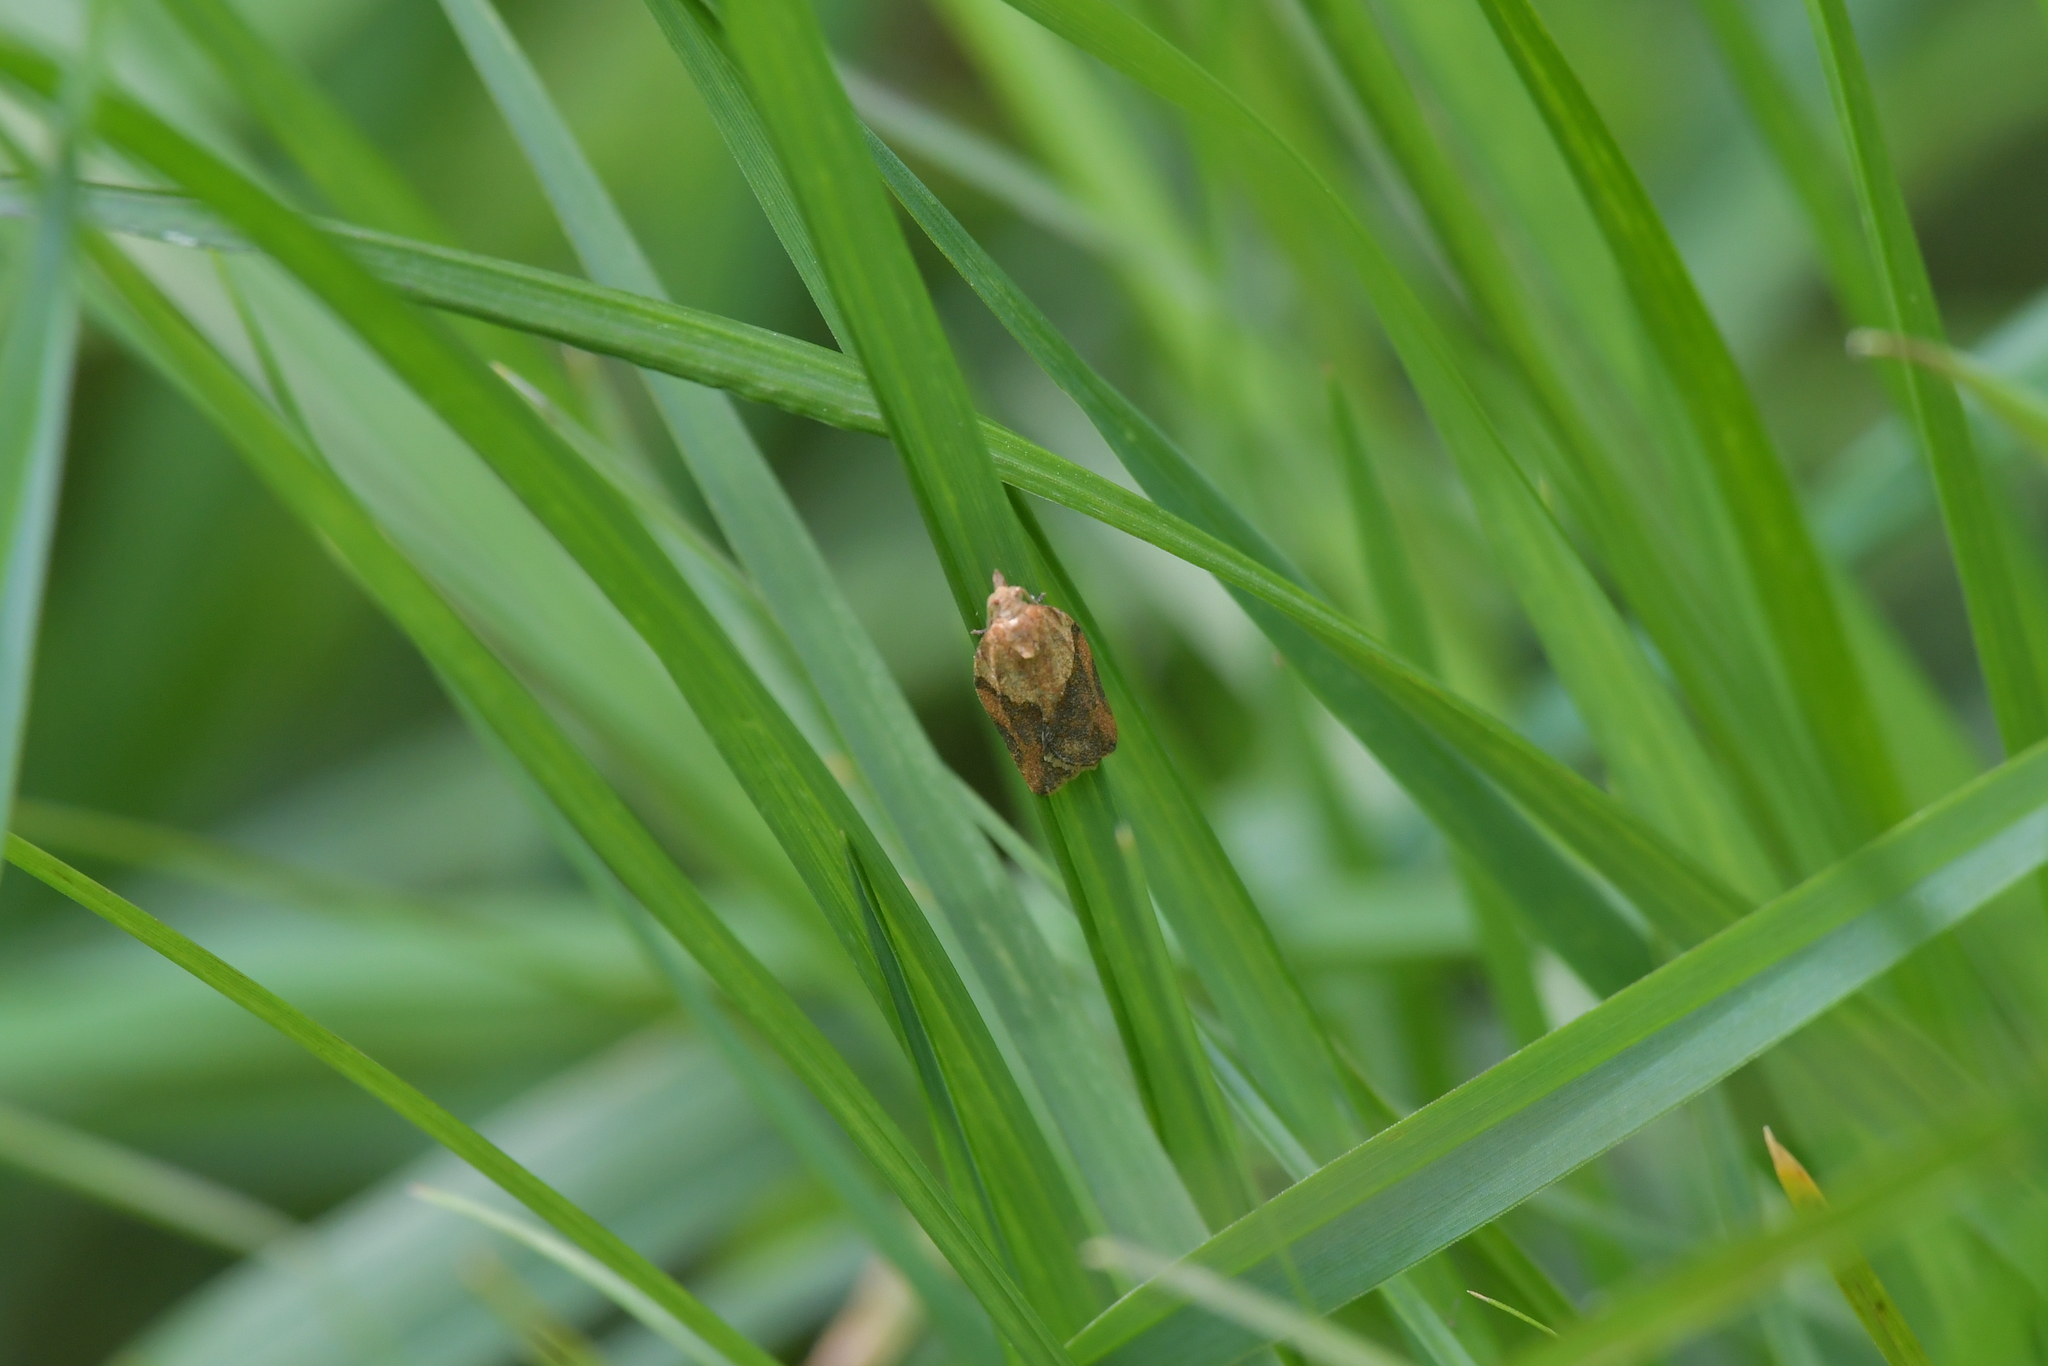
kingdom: Animalia
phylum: Arthropoda
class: Insecta
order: Lepidoptera
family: Tortricidae
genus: Epiphyas
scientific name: Epiphyas postvittana
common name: Light brown apple moth
